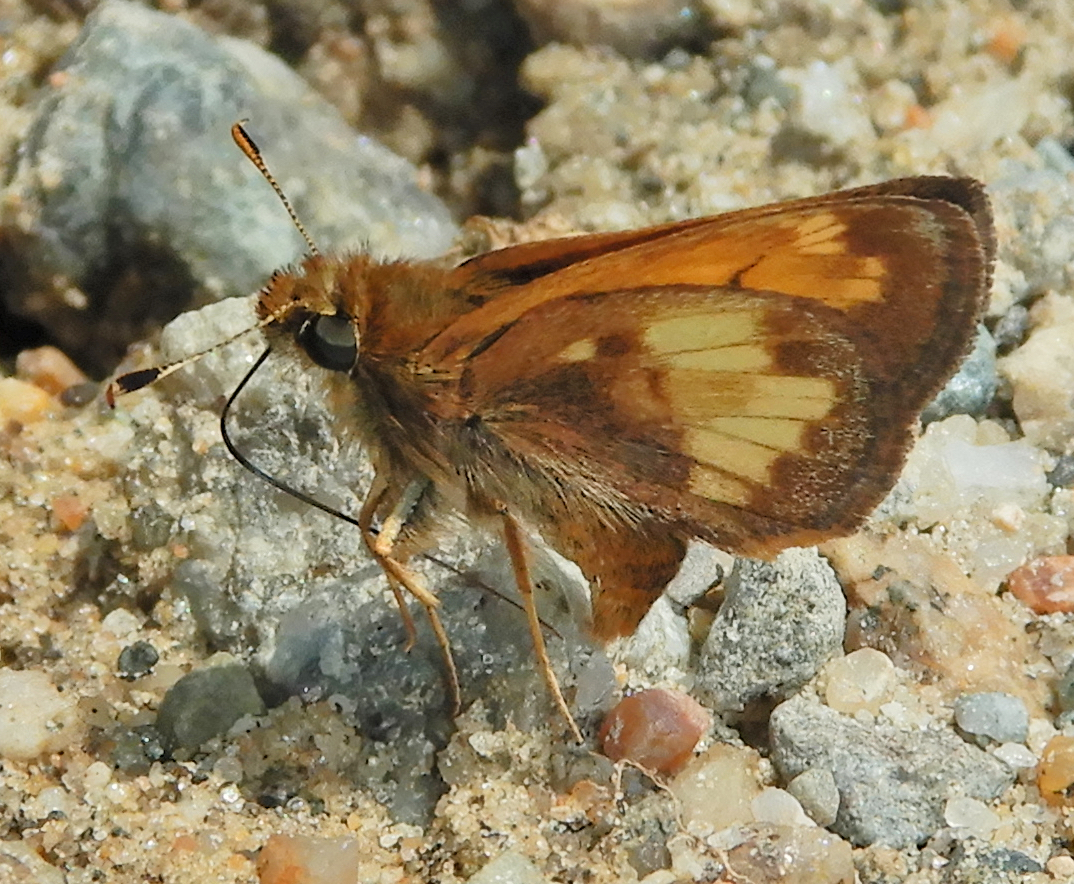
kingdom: Animalia
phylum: Arthropoda
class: Insecta
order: Lepidoptera
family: Hesperiidae
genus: Lon
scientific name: Lon hobomok
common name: Hobomok skipper
